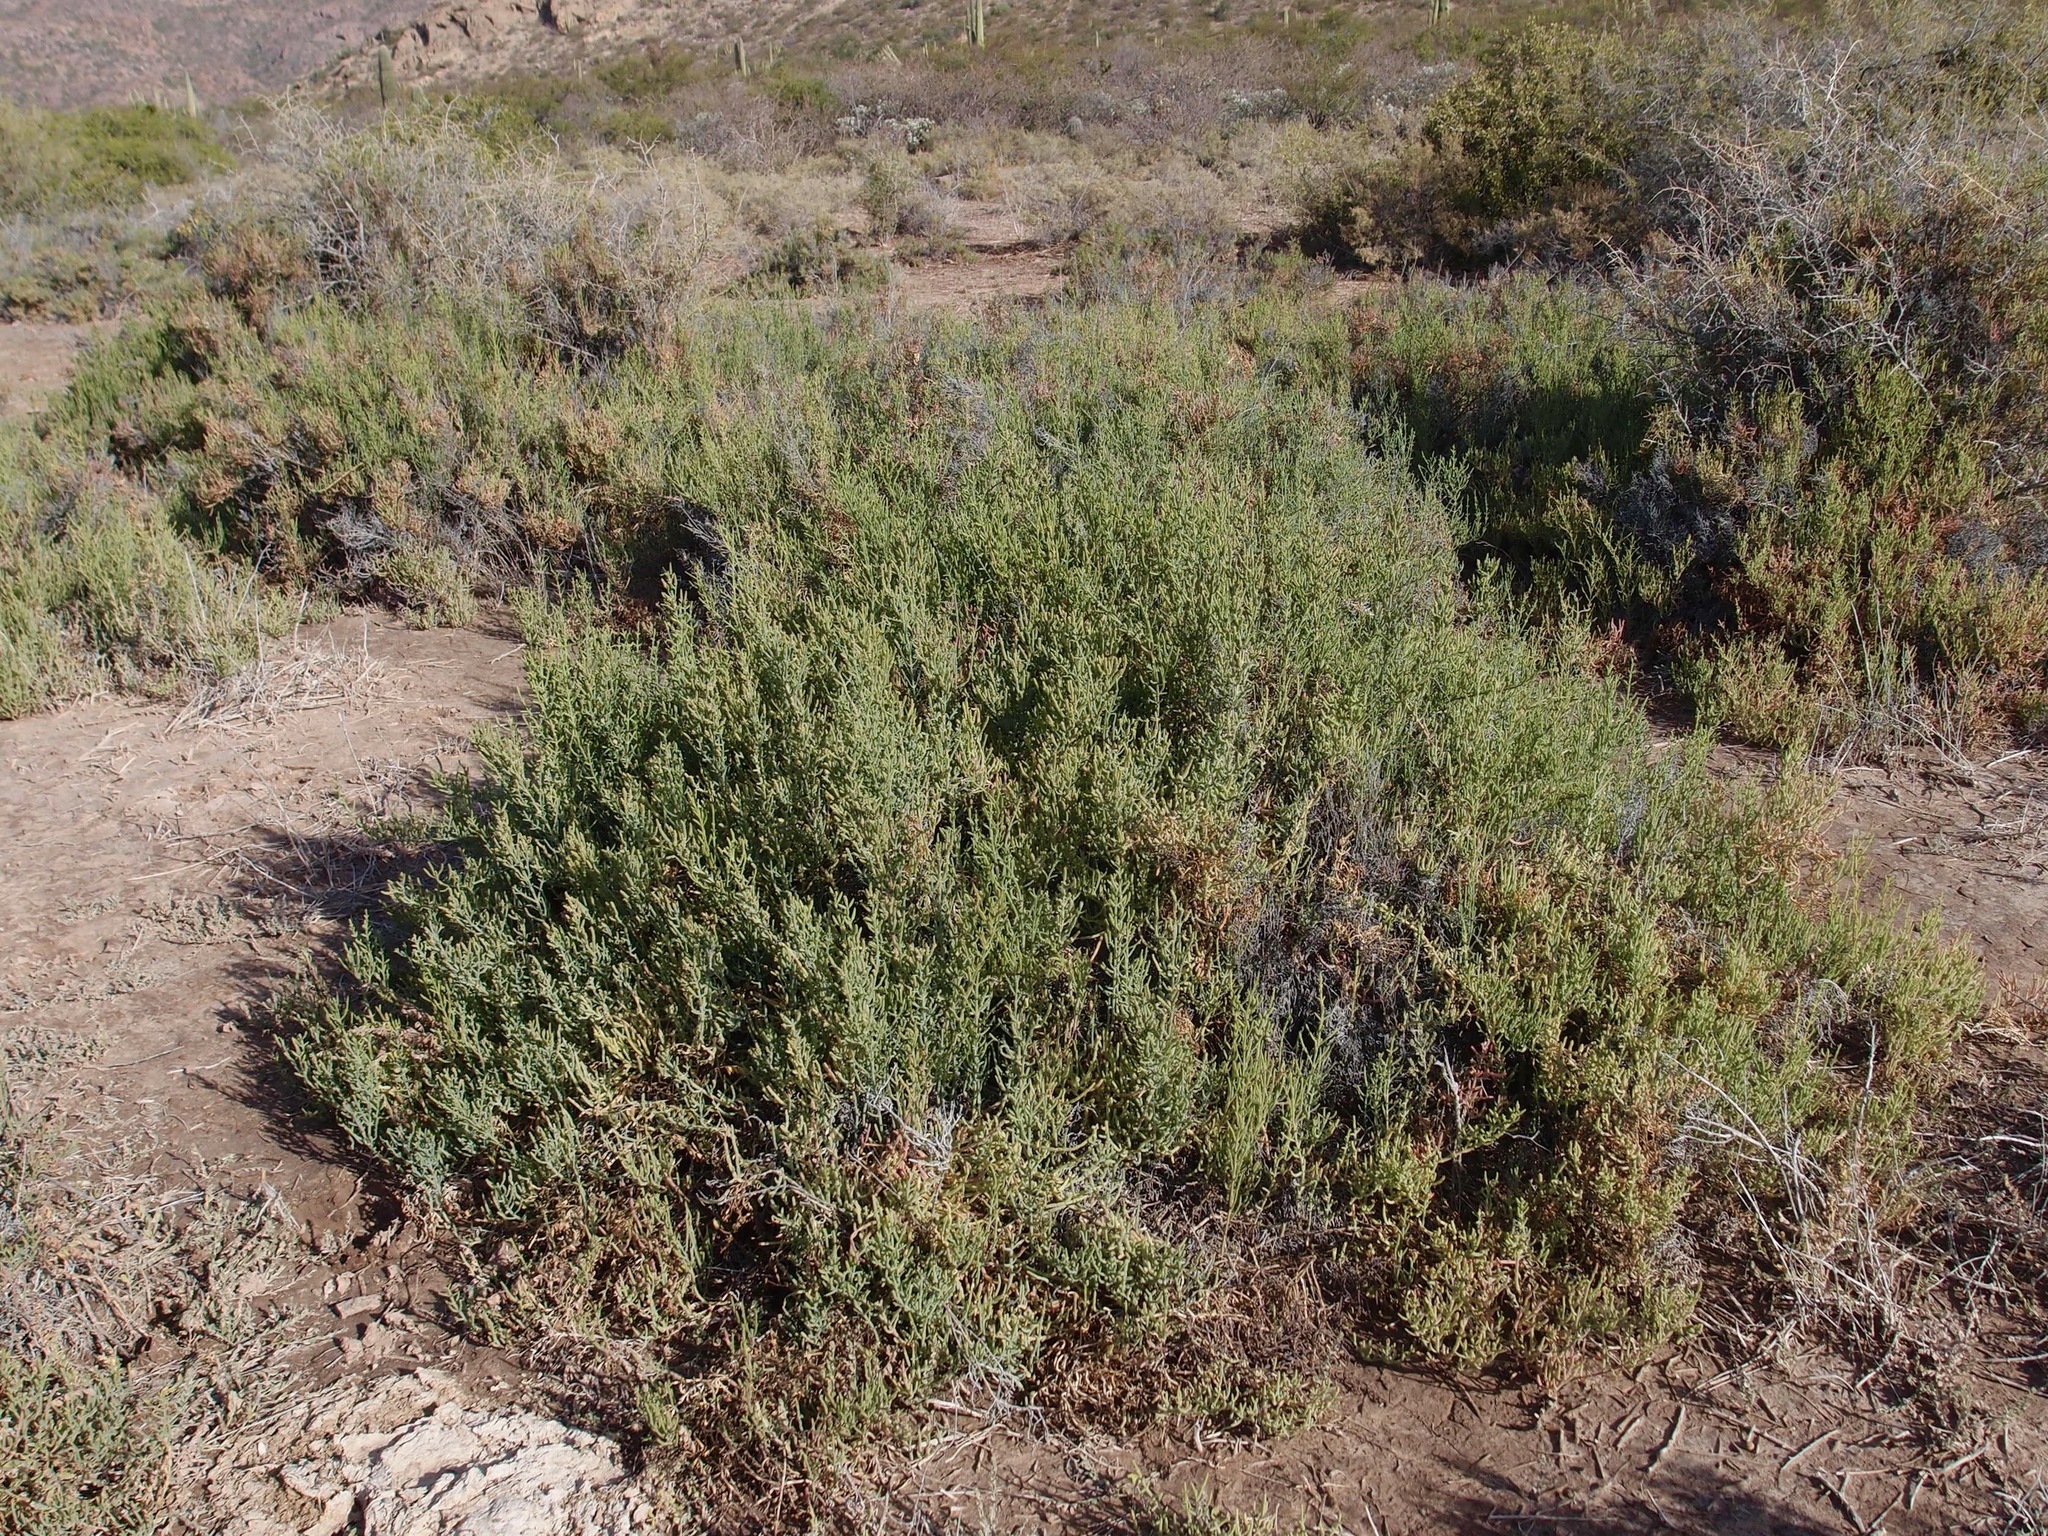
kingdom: Plantae
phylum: Tracheophyta
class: Magnoliopsida
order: Caryophyllales
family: Amaranthaceae
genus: Arthroceras
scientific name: Arthroceras subterminale
